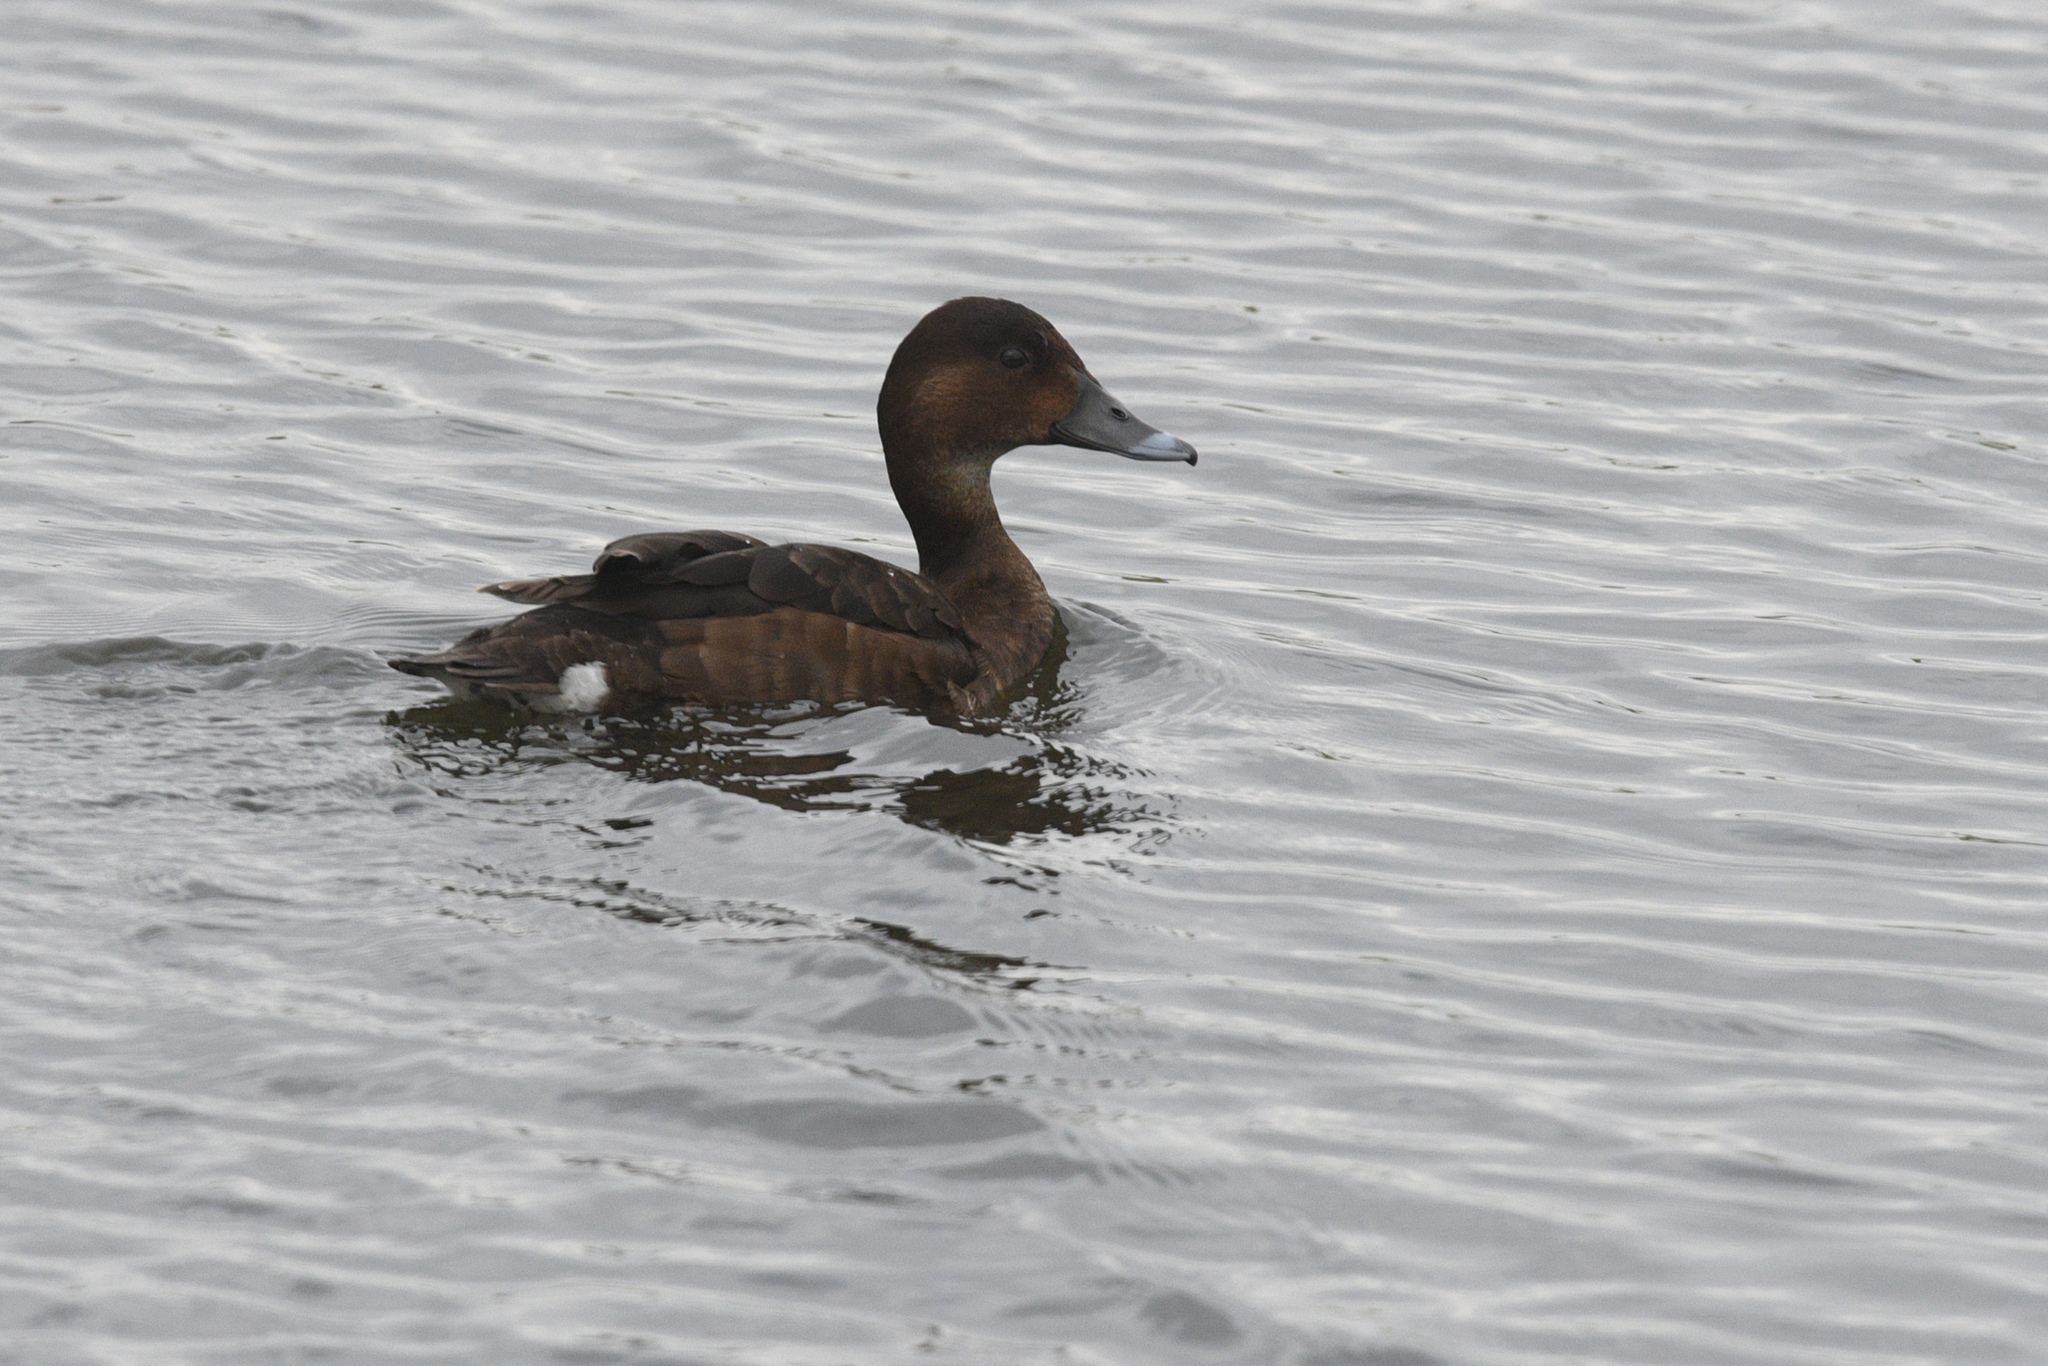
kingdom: Animalia
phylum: Chordata
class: Aves
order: Anseriformes
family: Anatidae
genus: Aythya
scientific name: Aythya australis
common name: Hardhead
